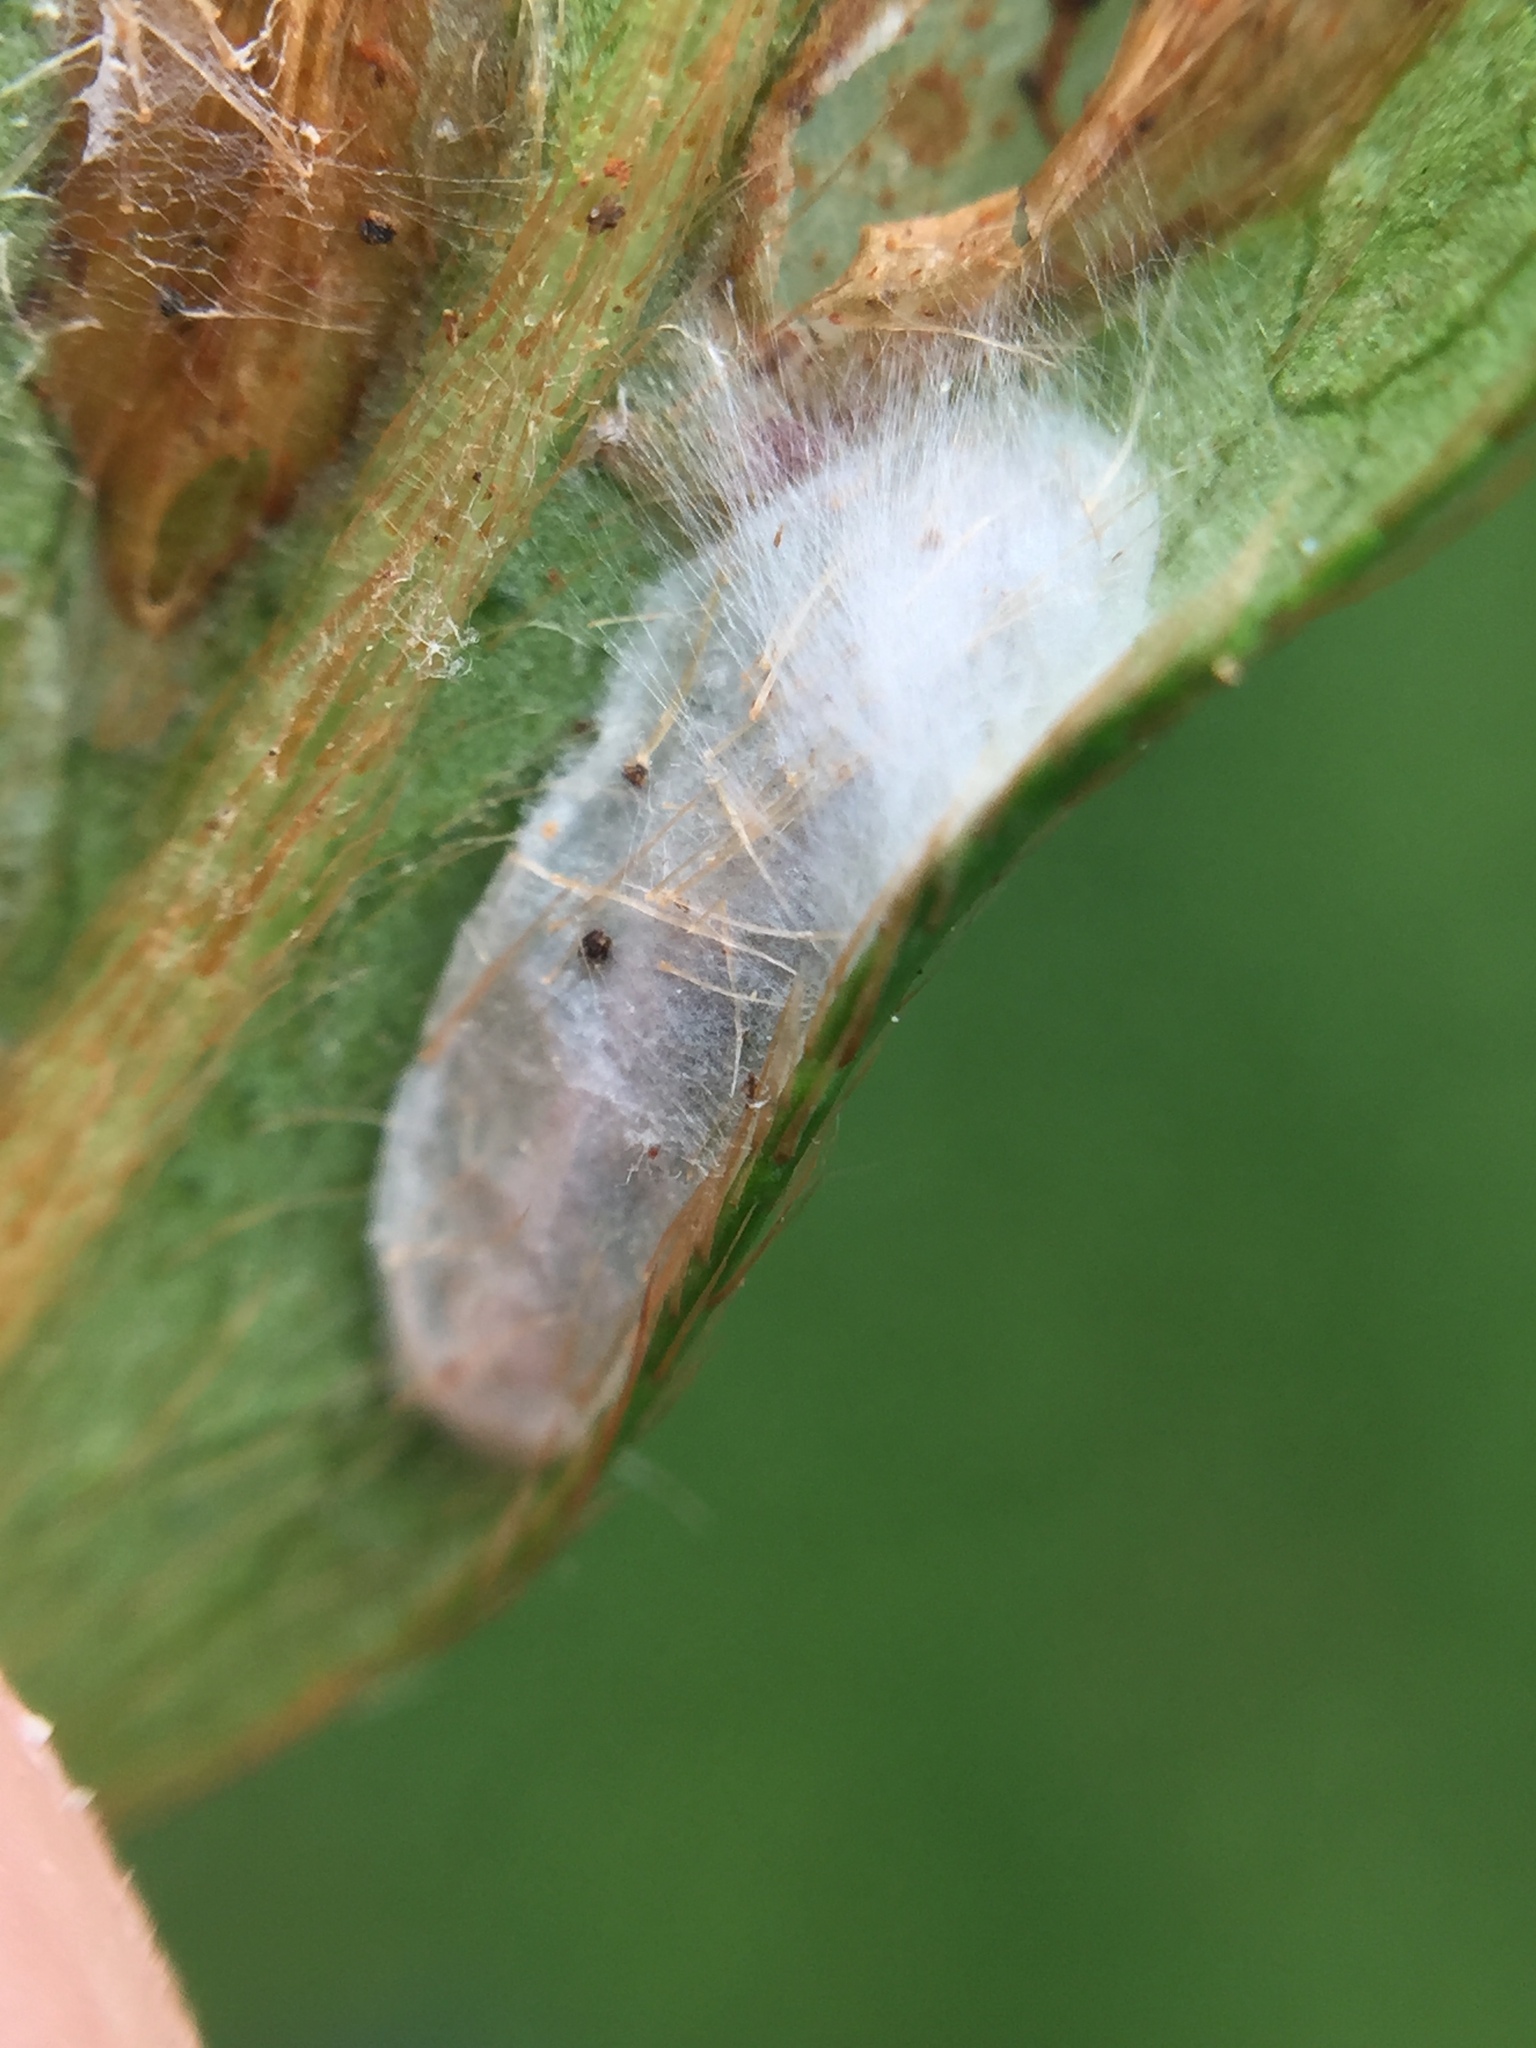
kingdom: Animalia
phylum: Arthropoda
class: Insecta
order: Lepidoptera
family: Gracillariidae
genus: Caloptilia
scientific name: Caloptilia azaleella
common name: Azalea leafminer
